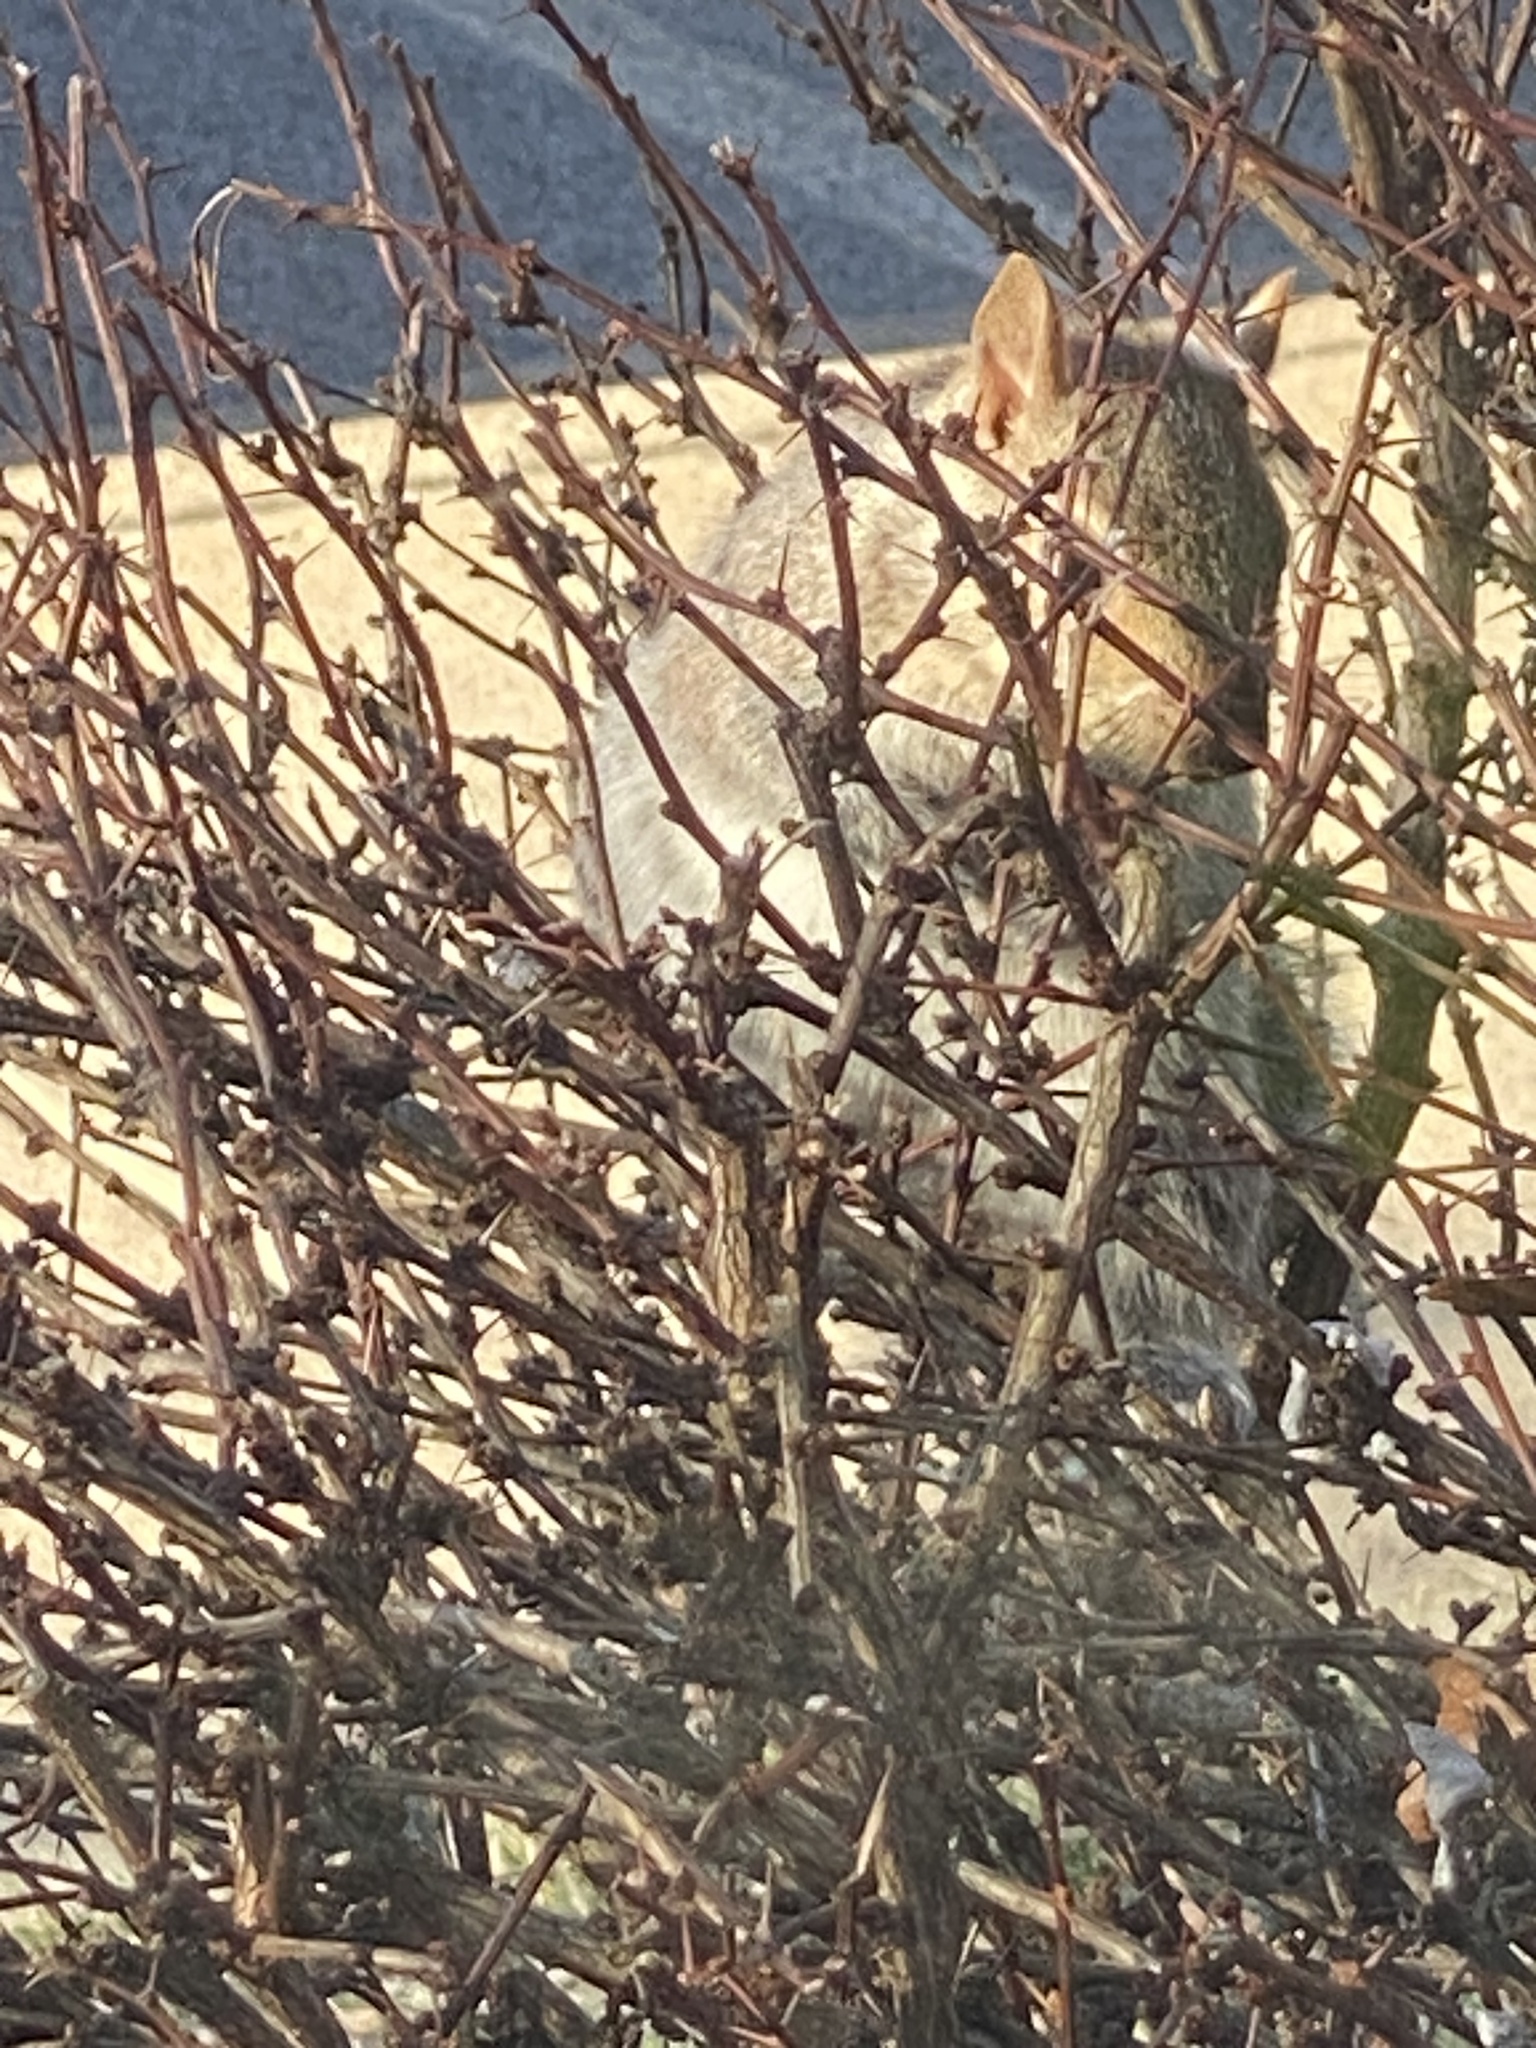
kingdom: Animalia
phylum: Chordata
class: Mammalia
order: Rodentia
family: Sciuridae
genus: Sciurus
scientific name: Sciurus carolinensis
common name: Eastern gray squirrel
